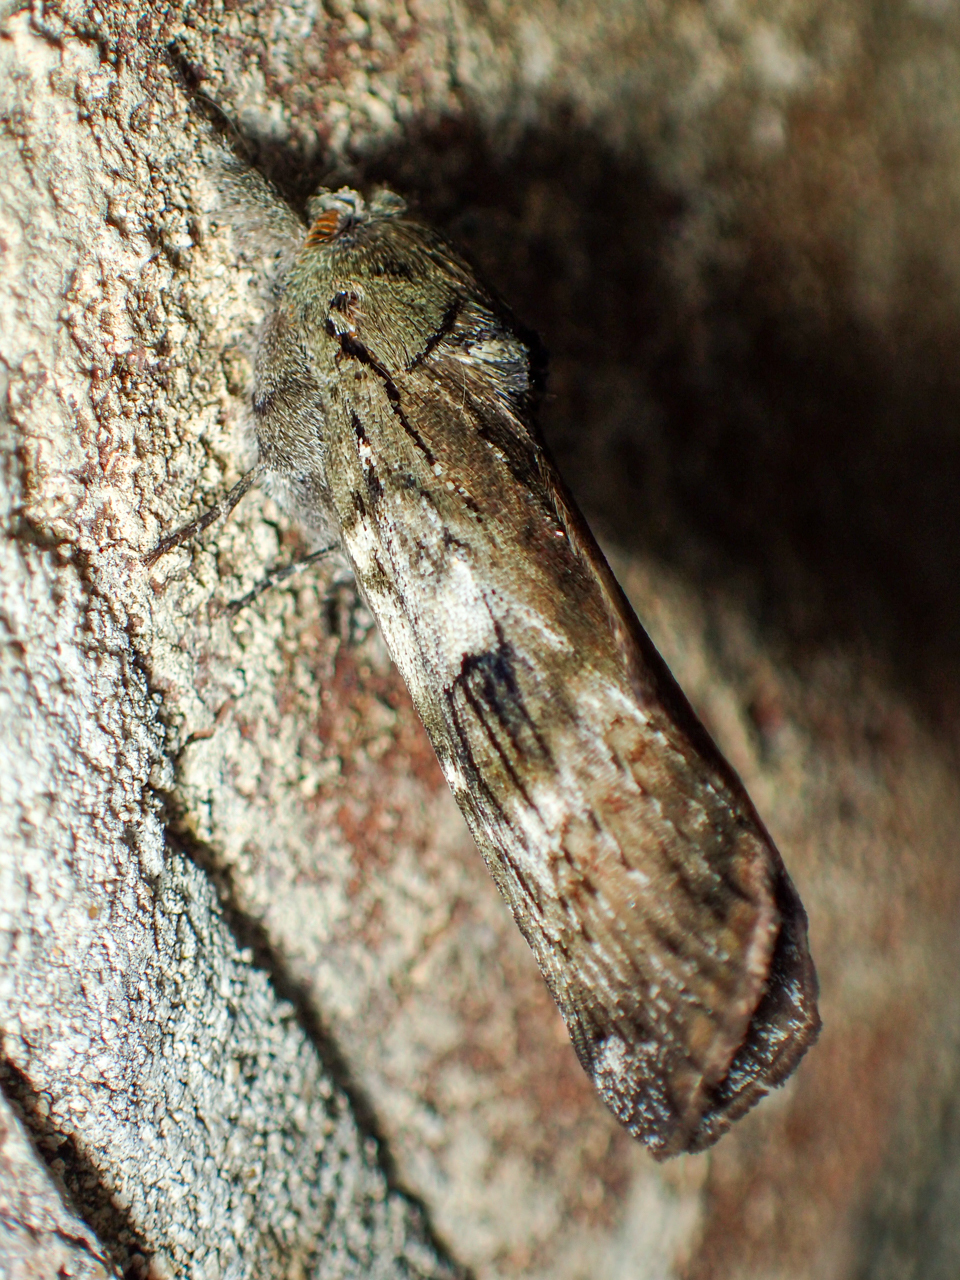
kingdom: Animalia
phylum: Arthropoda
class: Insecta
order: Lepidoptera
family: Notodontidae
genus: Schizura
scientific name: Schizura
